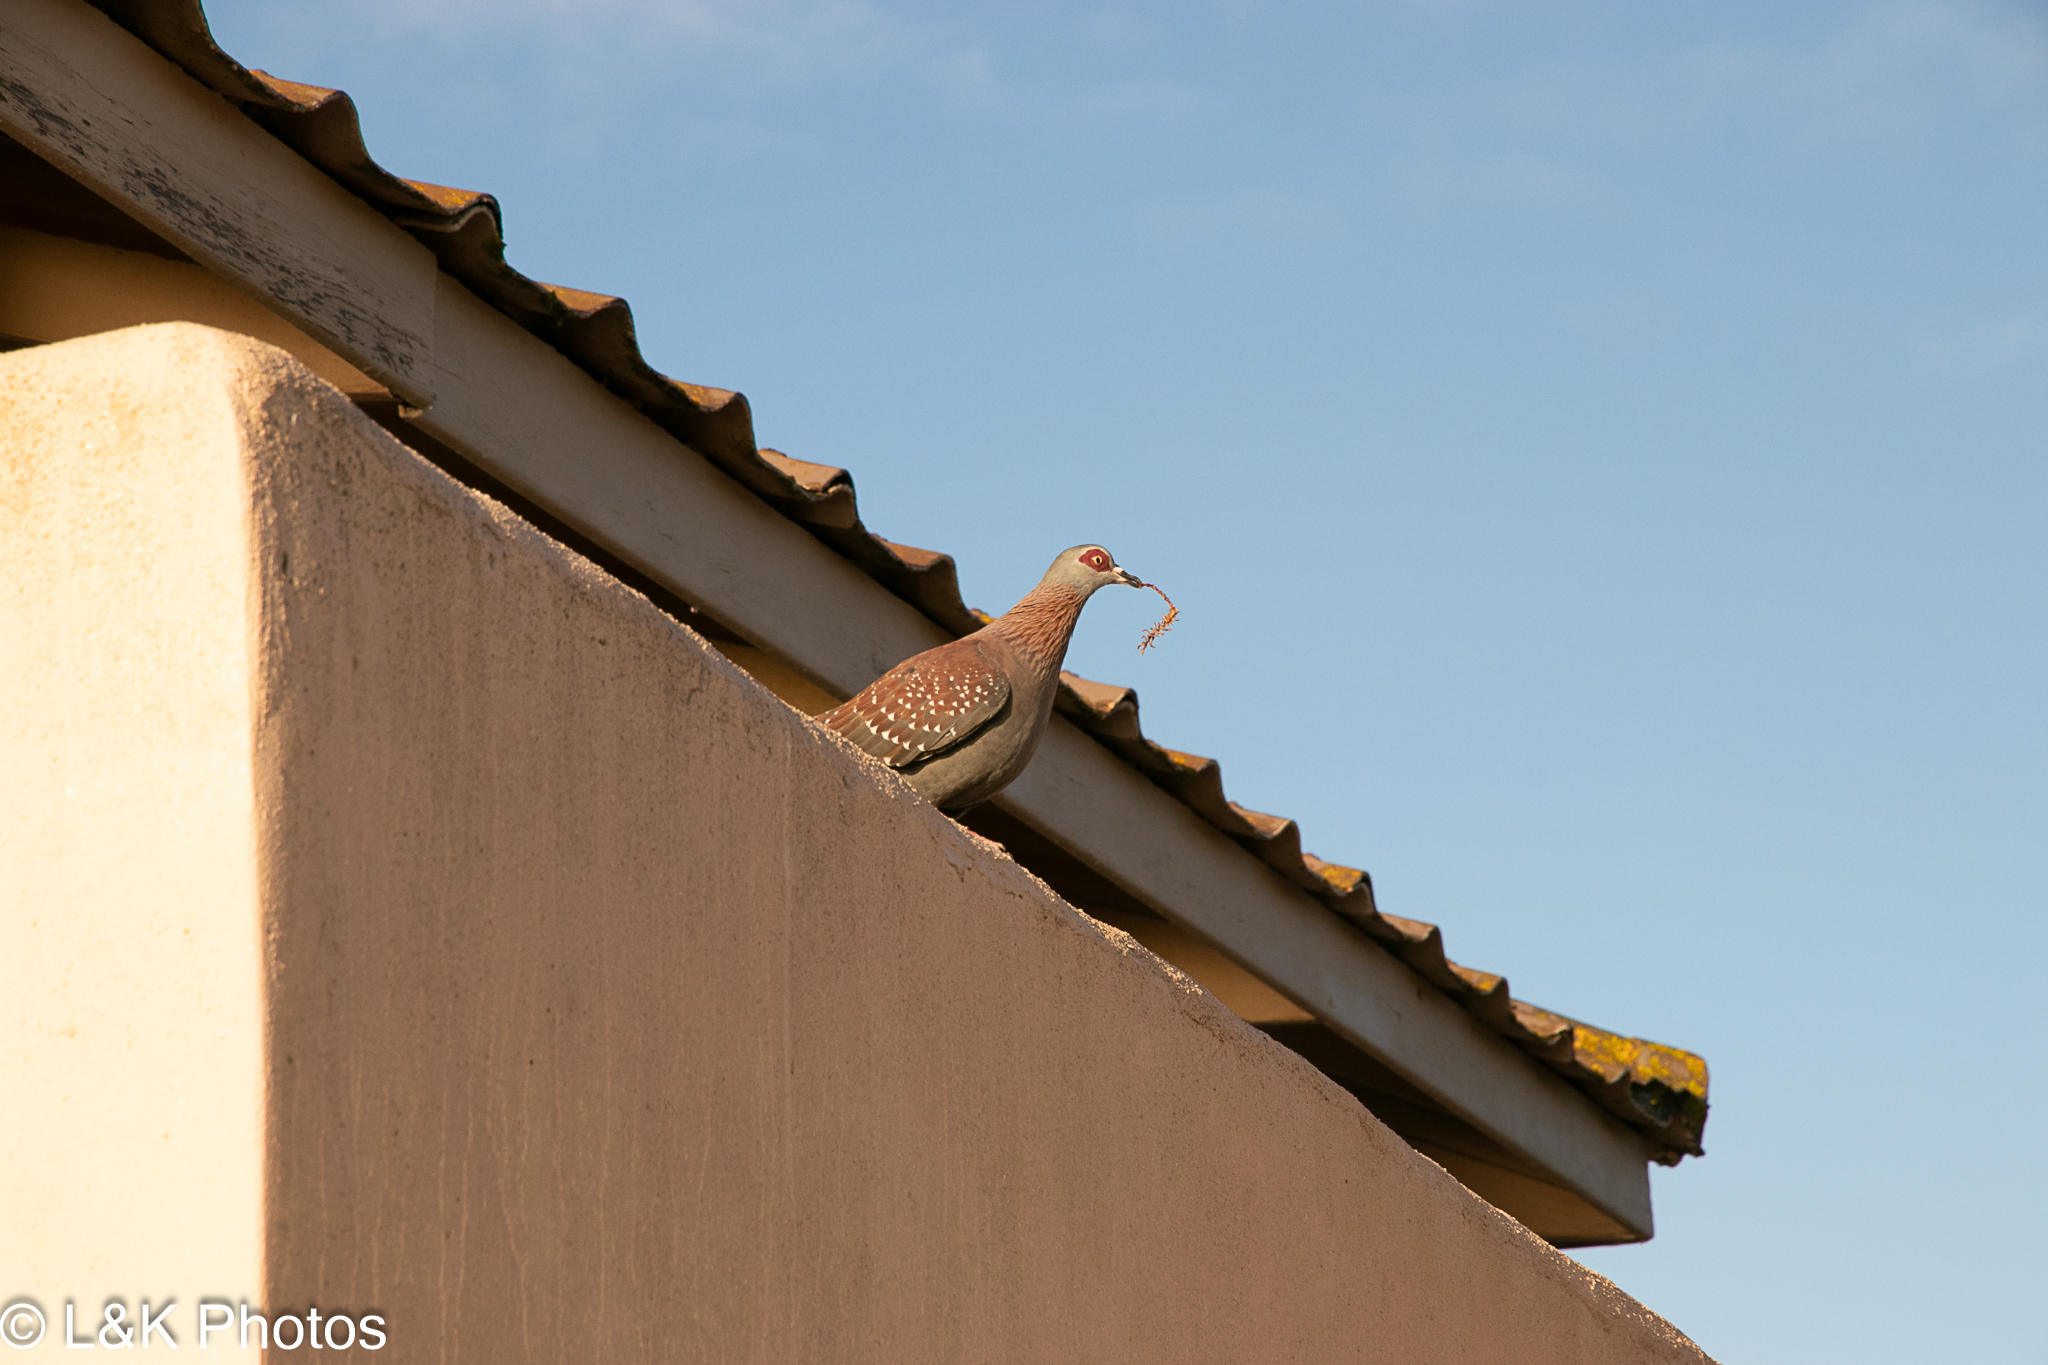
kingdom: Animalia
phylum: Chordata
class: Aves
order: Columbiformes
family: Columbidae
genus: Columba
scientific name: Columba guinea
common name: Speckled pigeon
